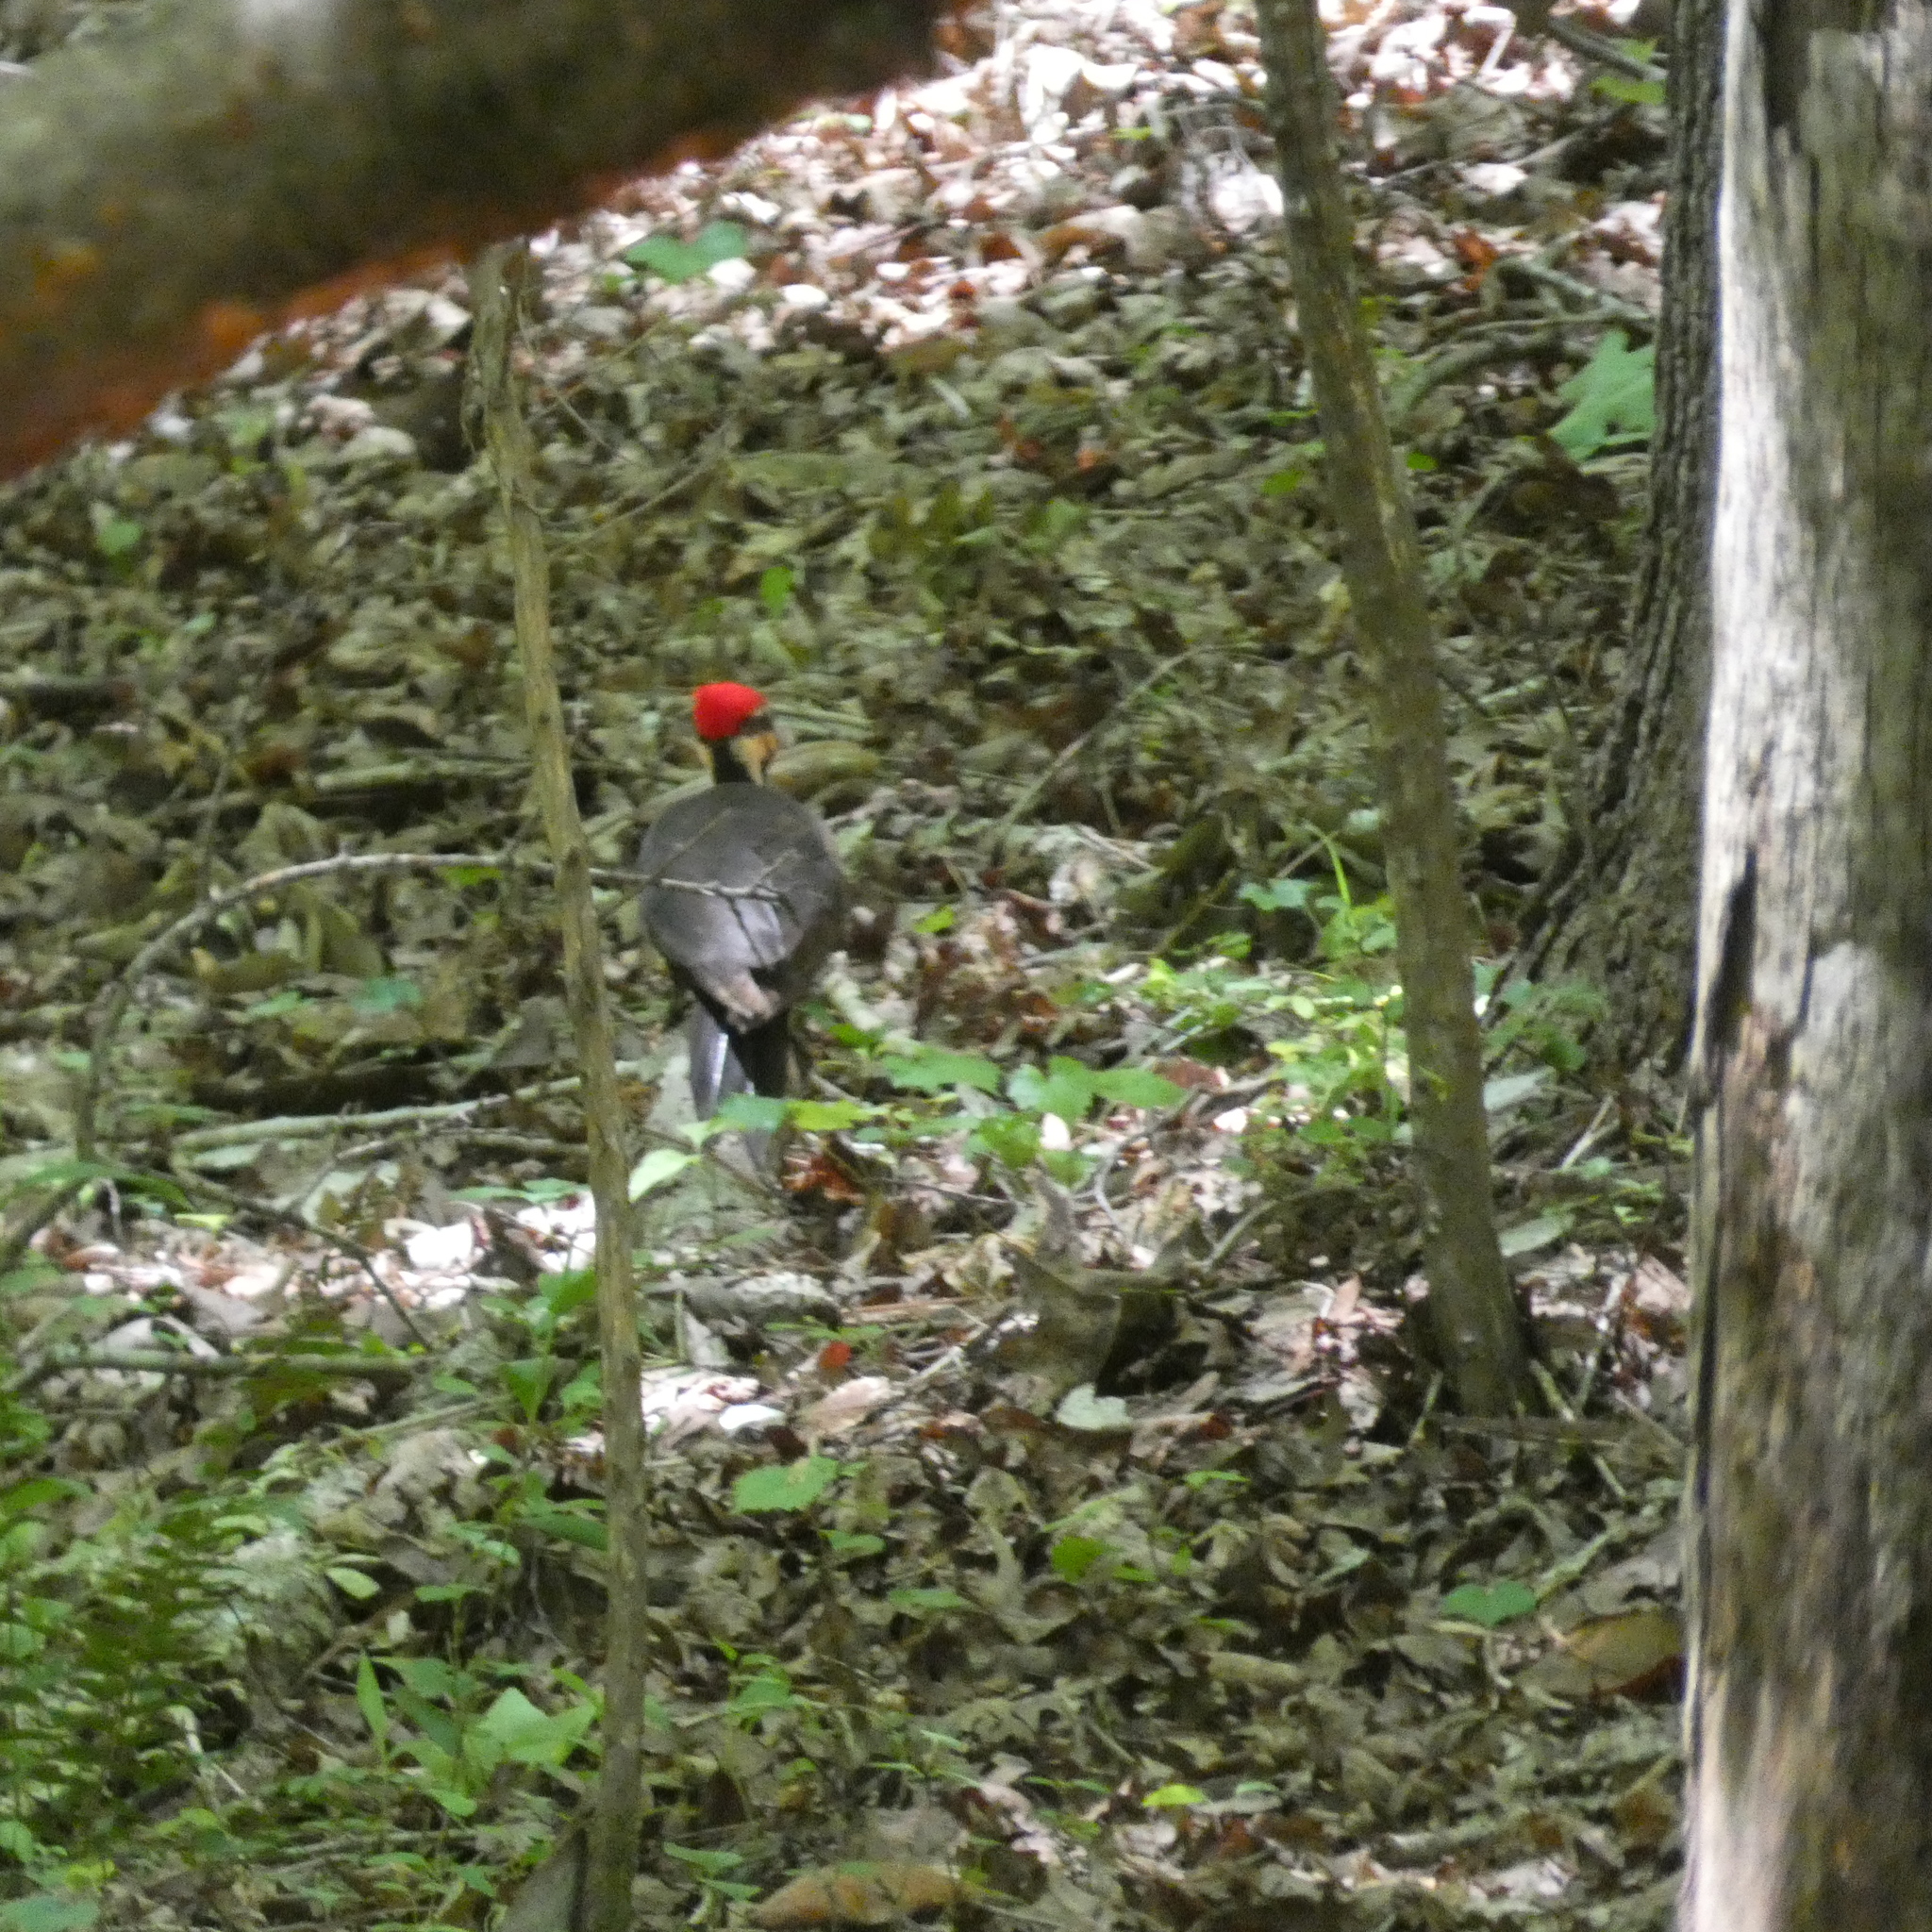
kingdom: Animalia
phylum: Chordata
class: Aves
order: Piciformes
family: Picidae
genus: Dryocopus
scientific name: Dryocopus pileatus
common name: Pileated woodpecker
